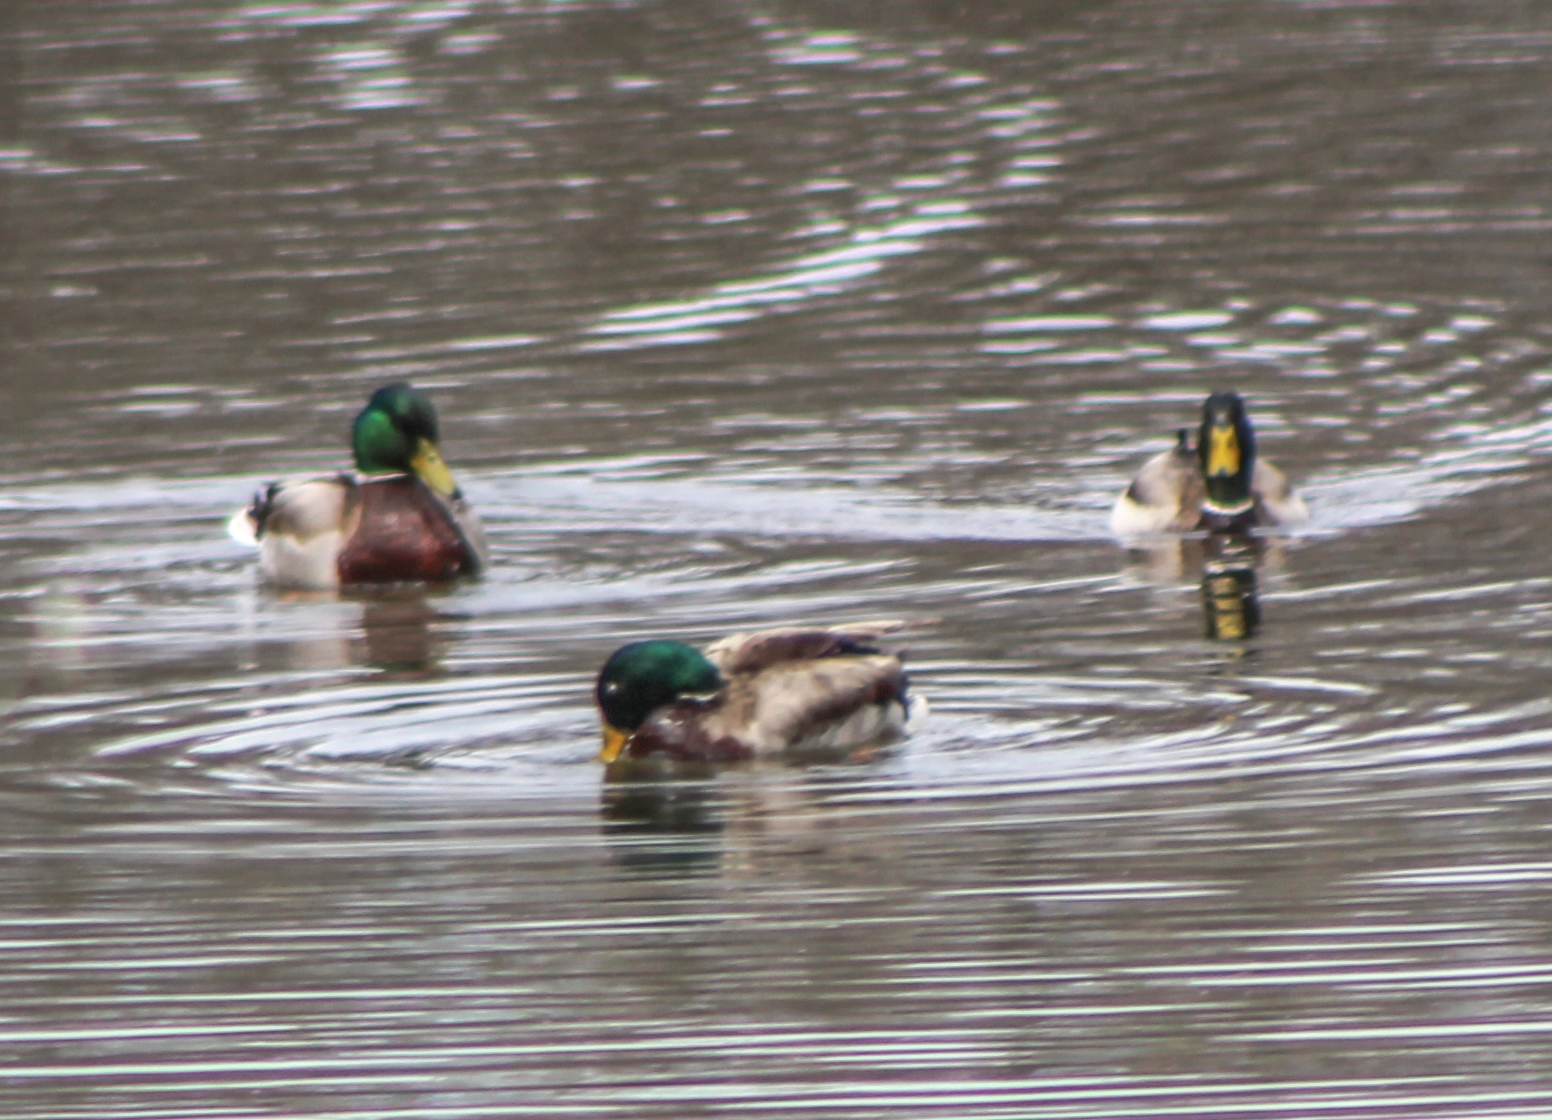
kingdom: Animalia
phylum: Chordata
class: Aves
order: Anseriformes
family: Anatidae
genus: Anas
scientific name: Anas platyrhynchos
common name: Mallard
